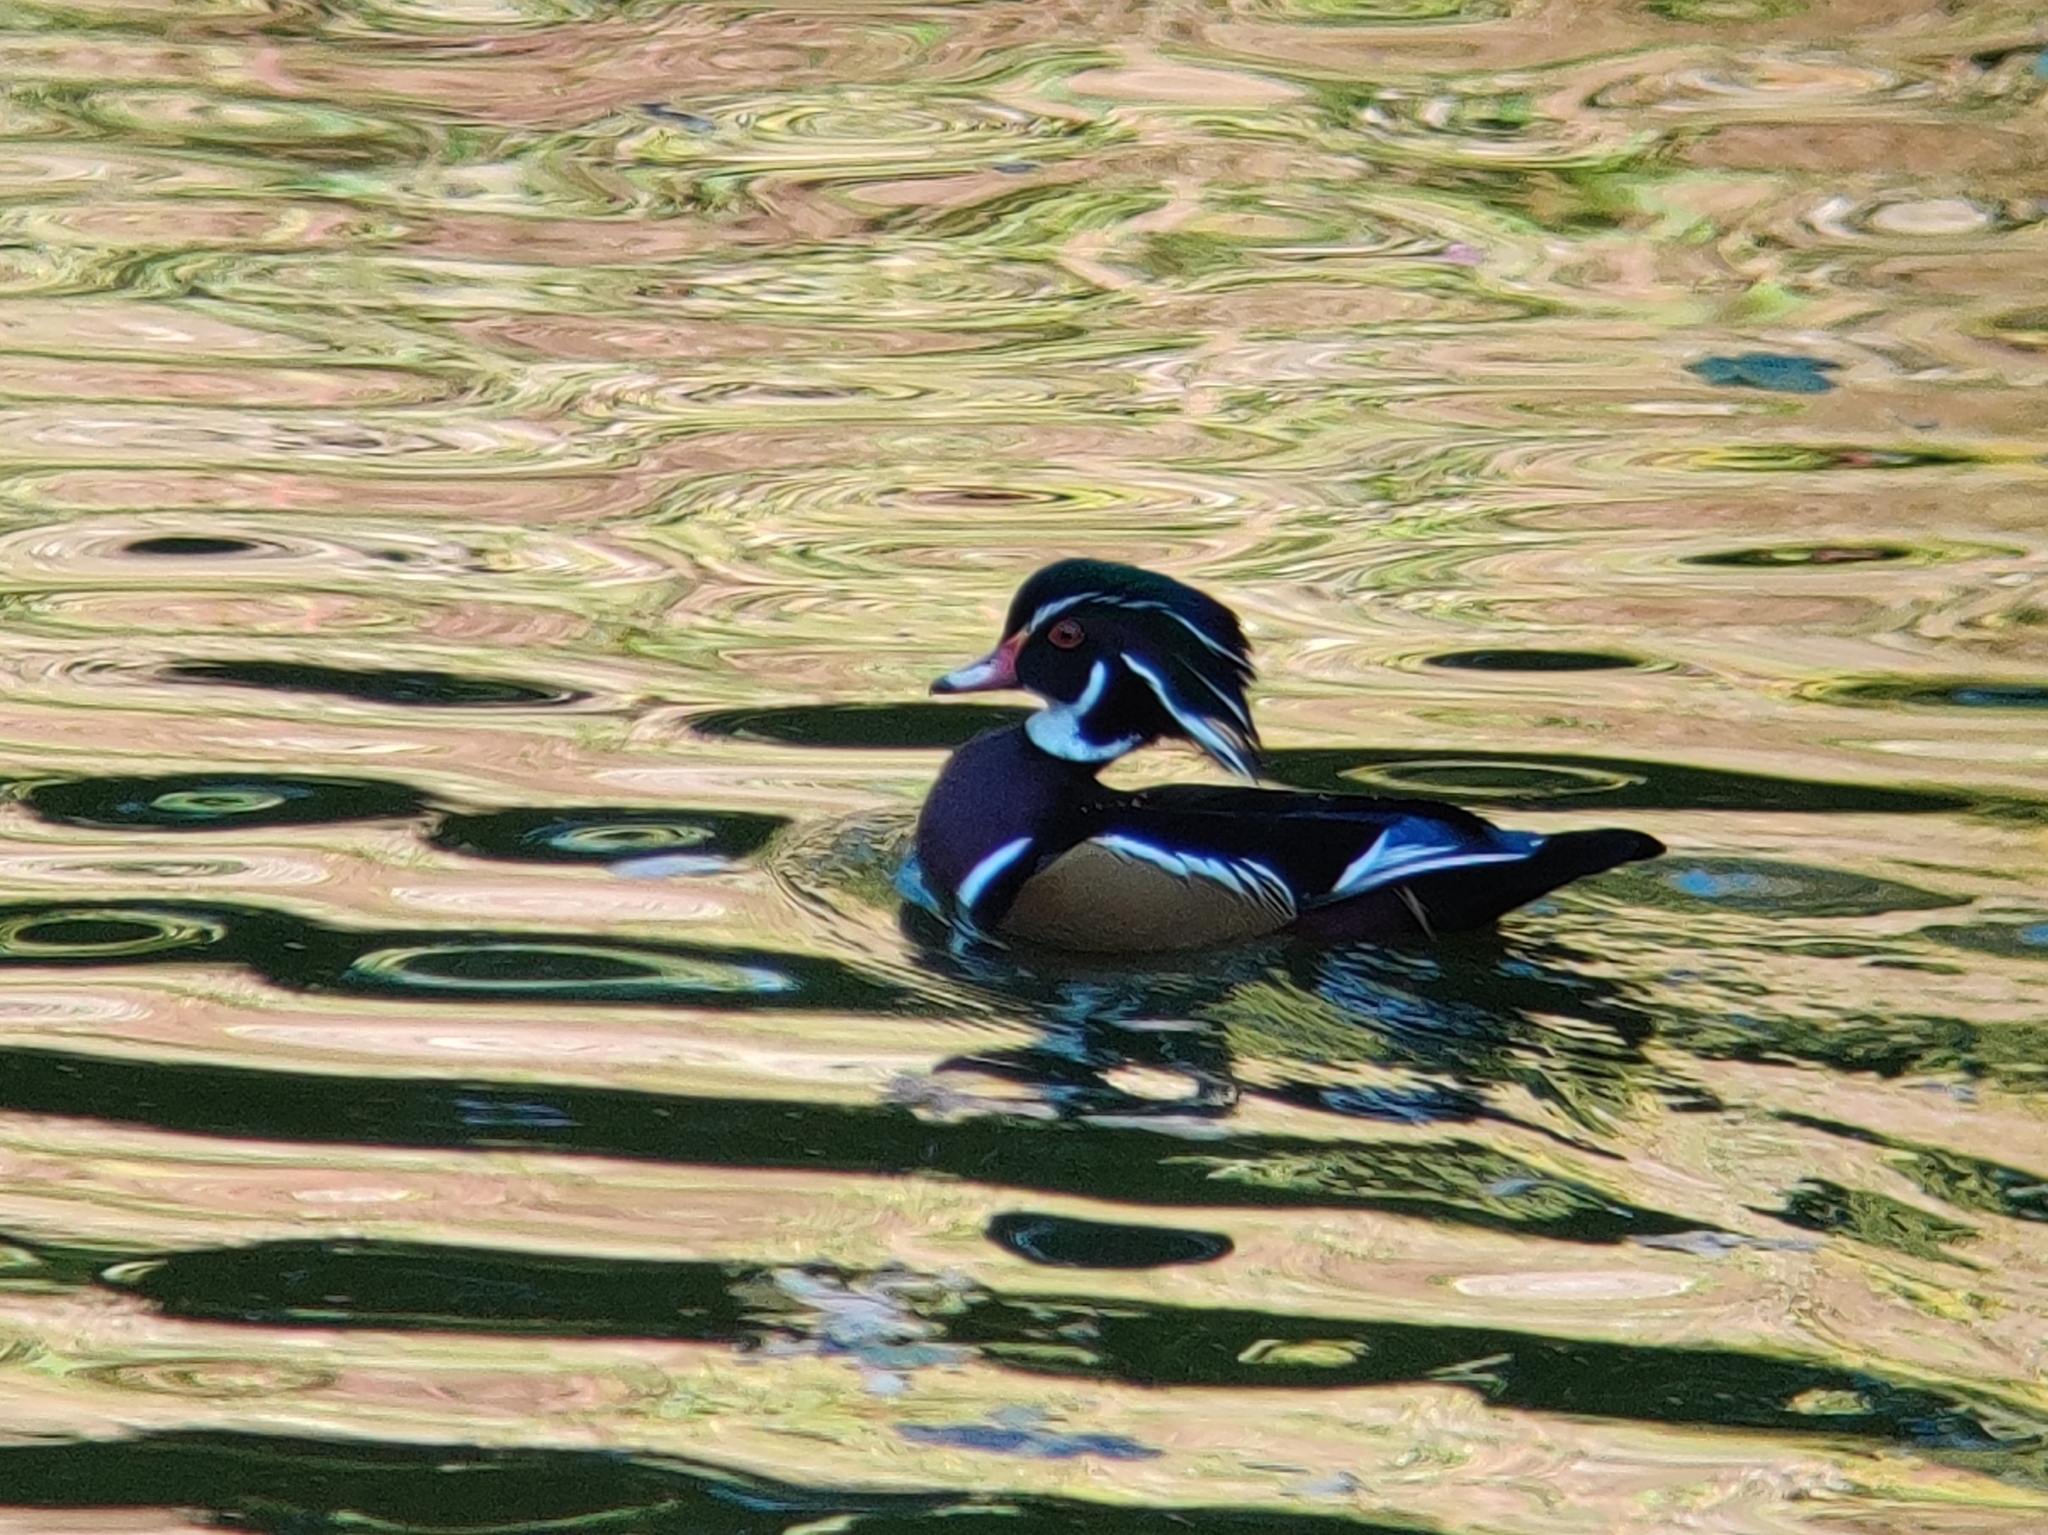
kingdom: Animalia
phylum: Chordata
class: Aves
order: Anseriformes
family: Anatidae
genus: Aix
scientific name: Aix sponsa
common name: Wood duck
